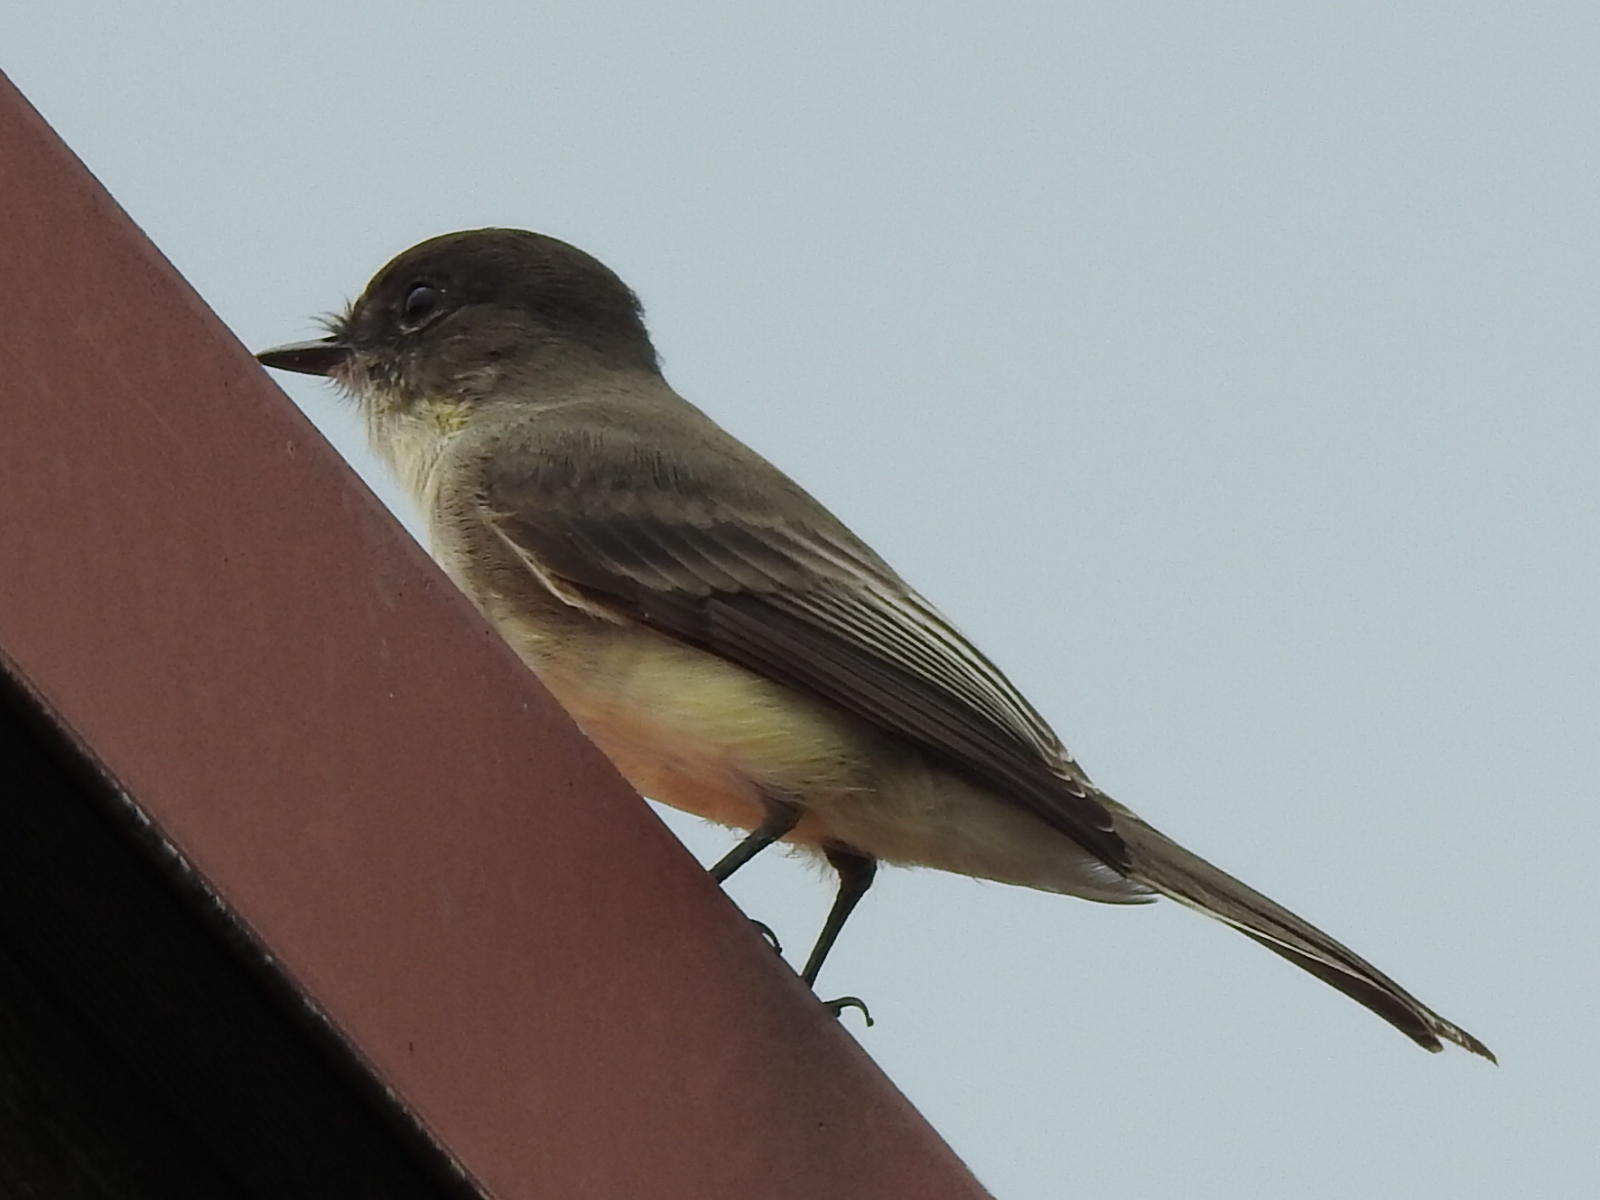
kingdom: Animalia
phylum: Chordata
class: Aves
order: Passeriformes
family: Tyrannidae
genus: Sayornis
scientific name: Sayornis phoebe
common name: Eastern phoebe
